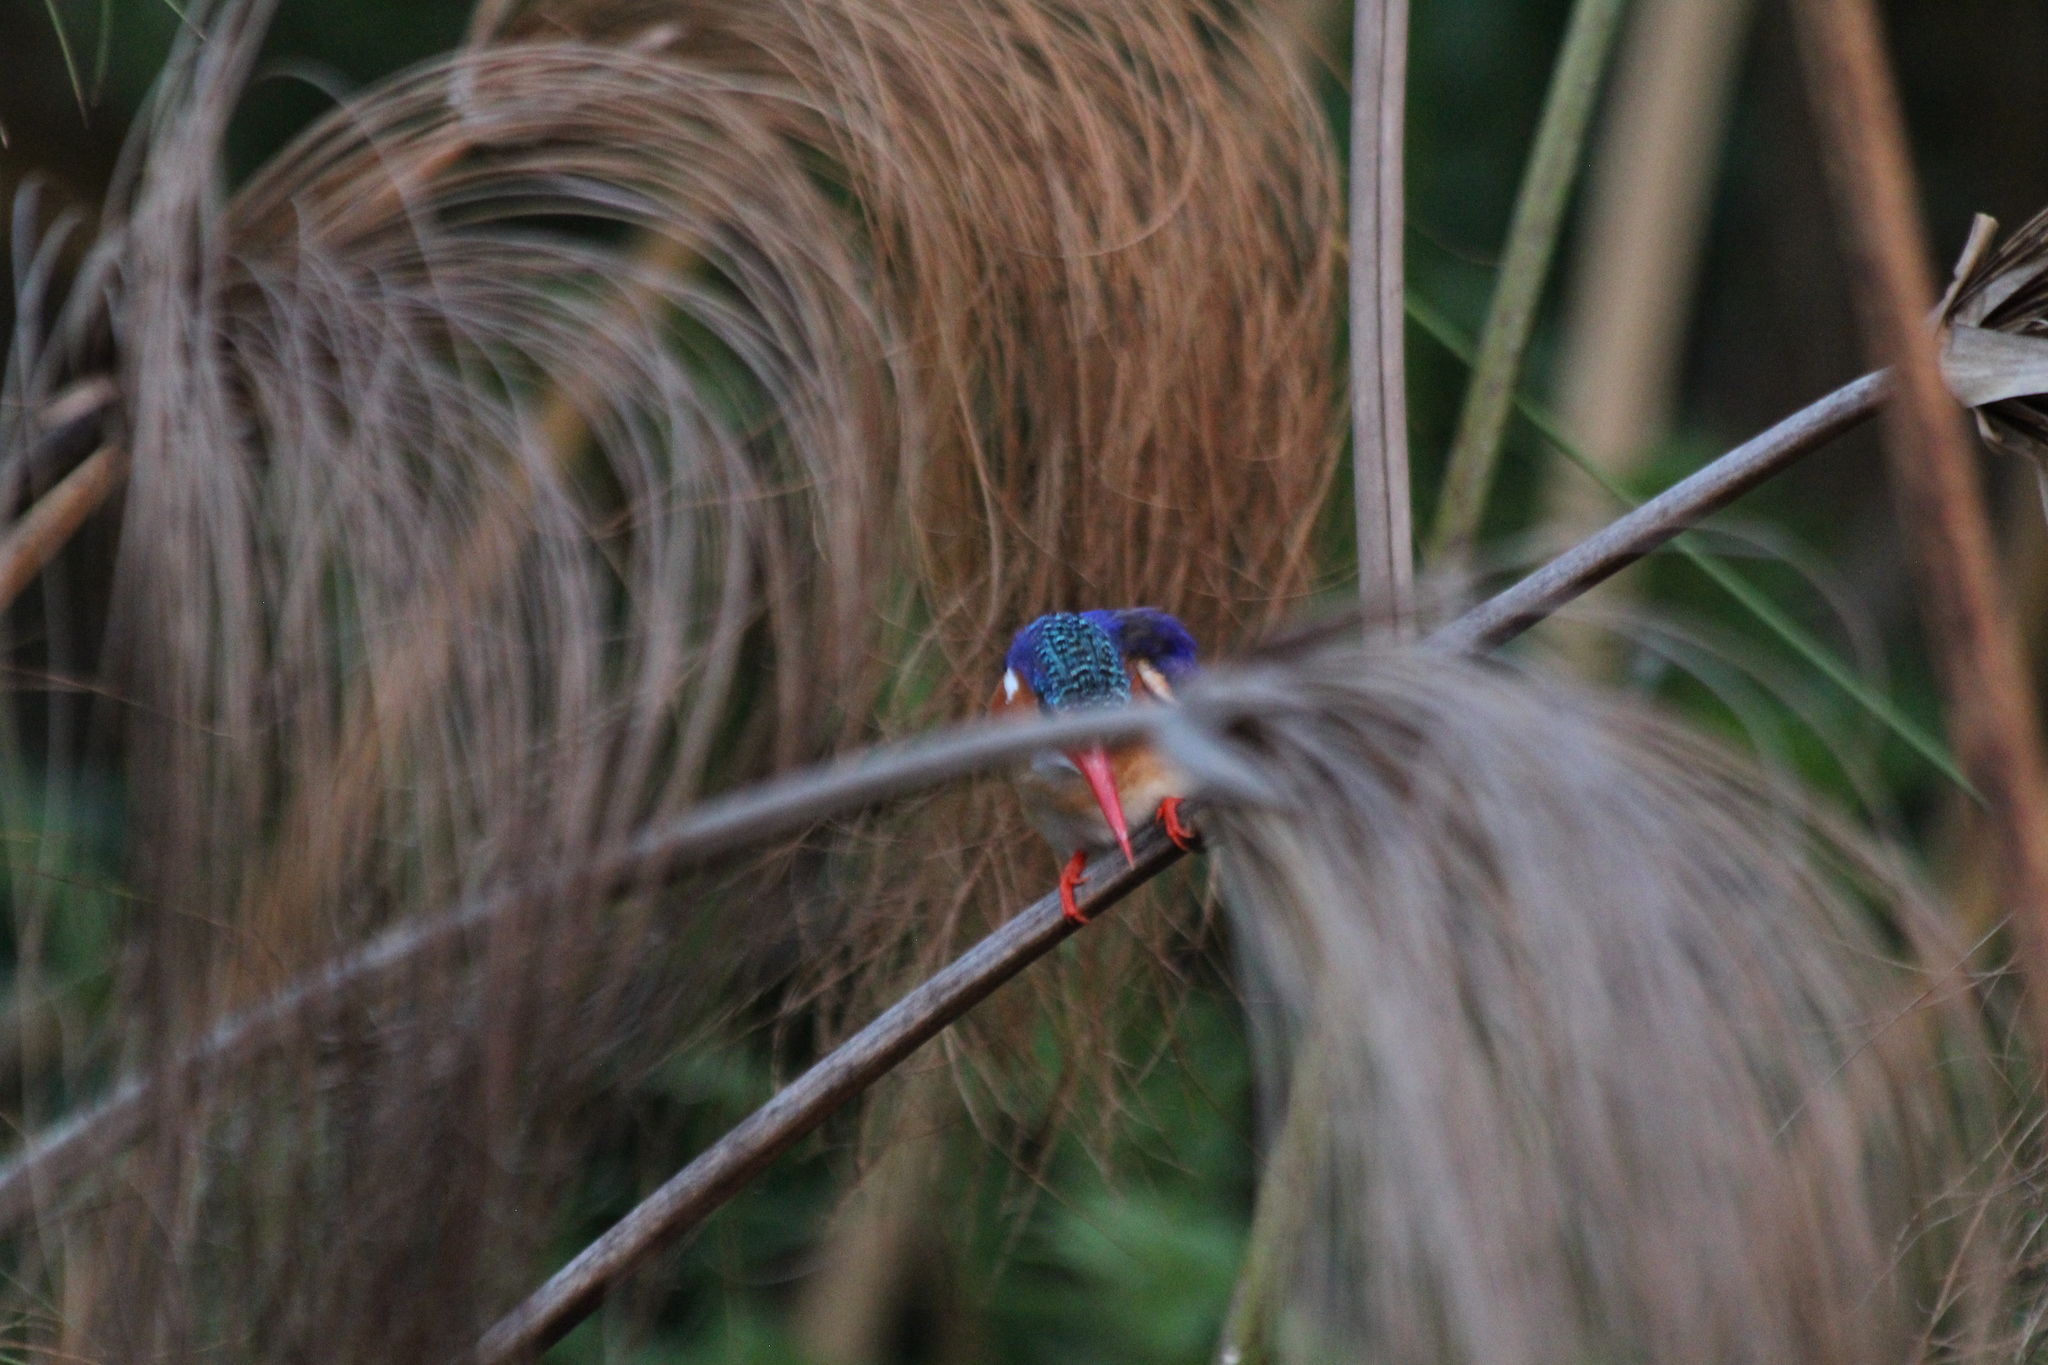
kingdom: Animalia
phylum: Chordata
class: Aves
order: Coraciiformes
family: Alcedinidae
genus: Corythornis
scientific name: Corythornis cristatus
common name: Malachite kingfisher
